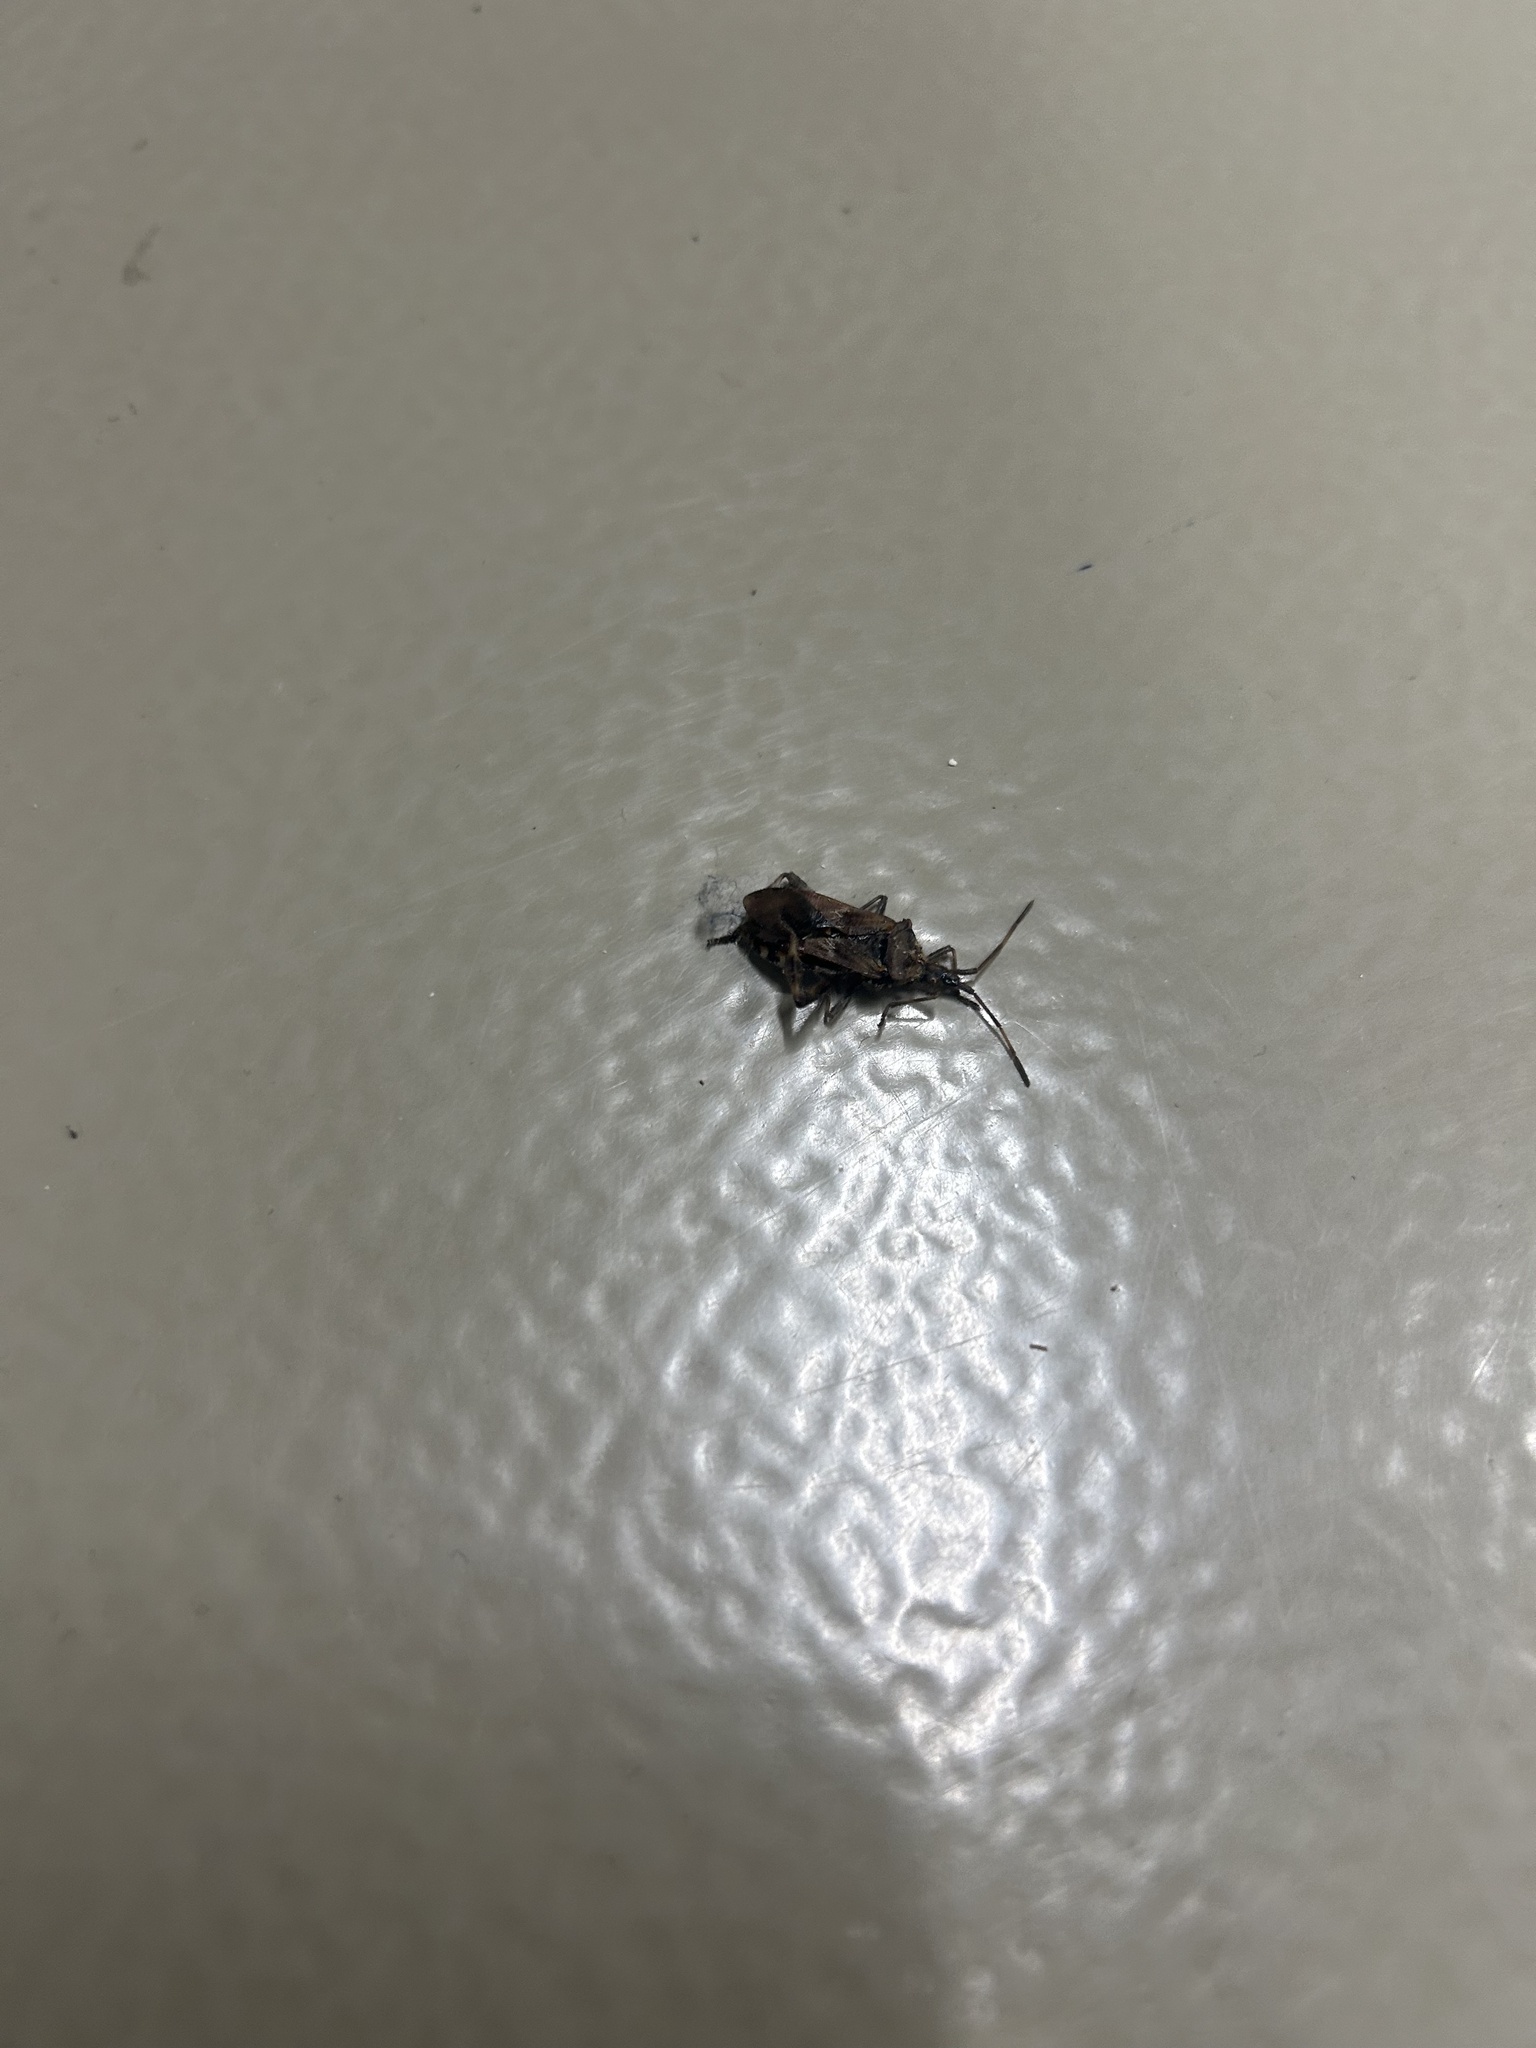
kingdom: Animalia
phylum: Arthropoda
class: Insecta
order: Hemiptera
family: Coreidae
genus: Leptoglossus
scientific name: Leptoglossus occidentalis
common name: Western conifer-seed bug
